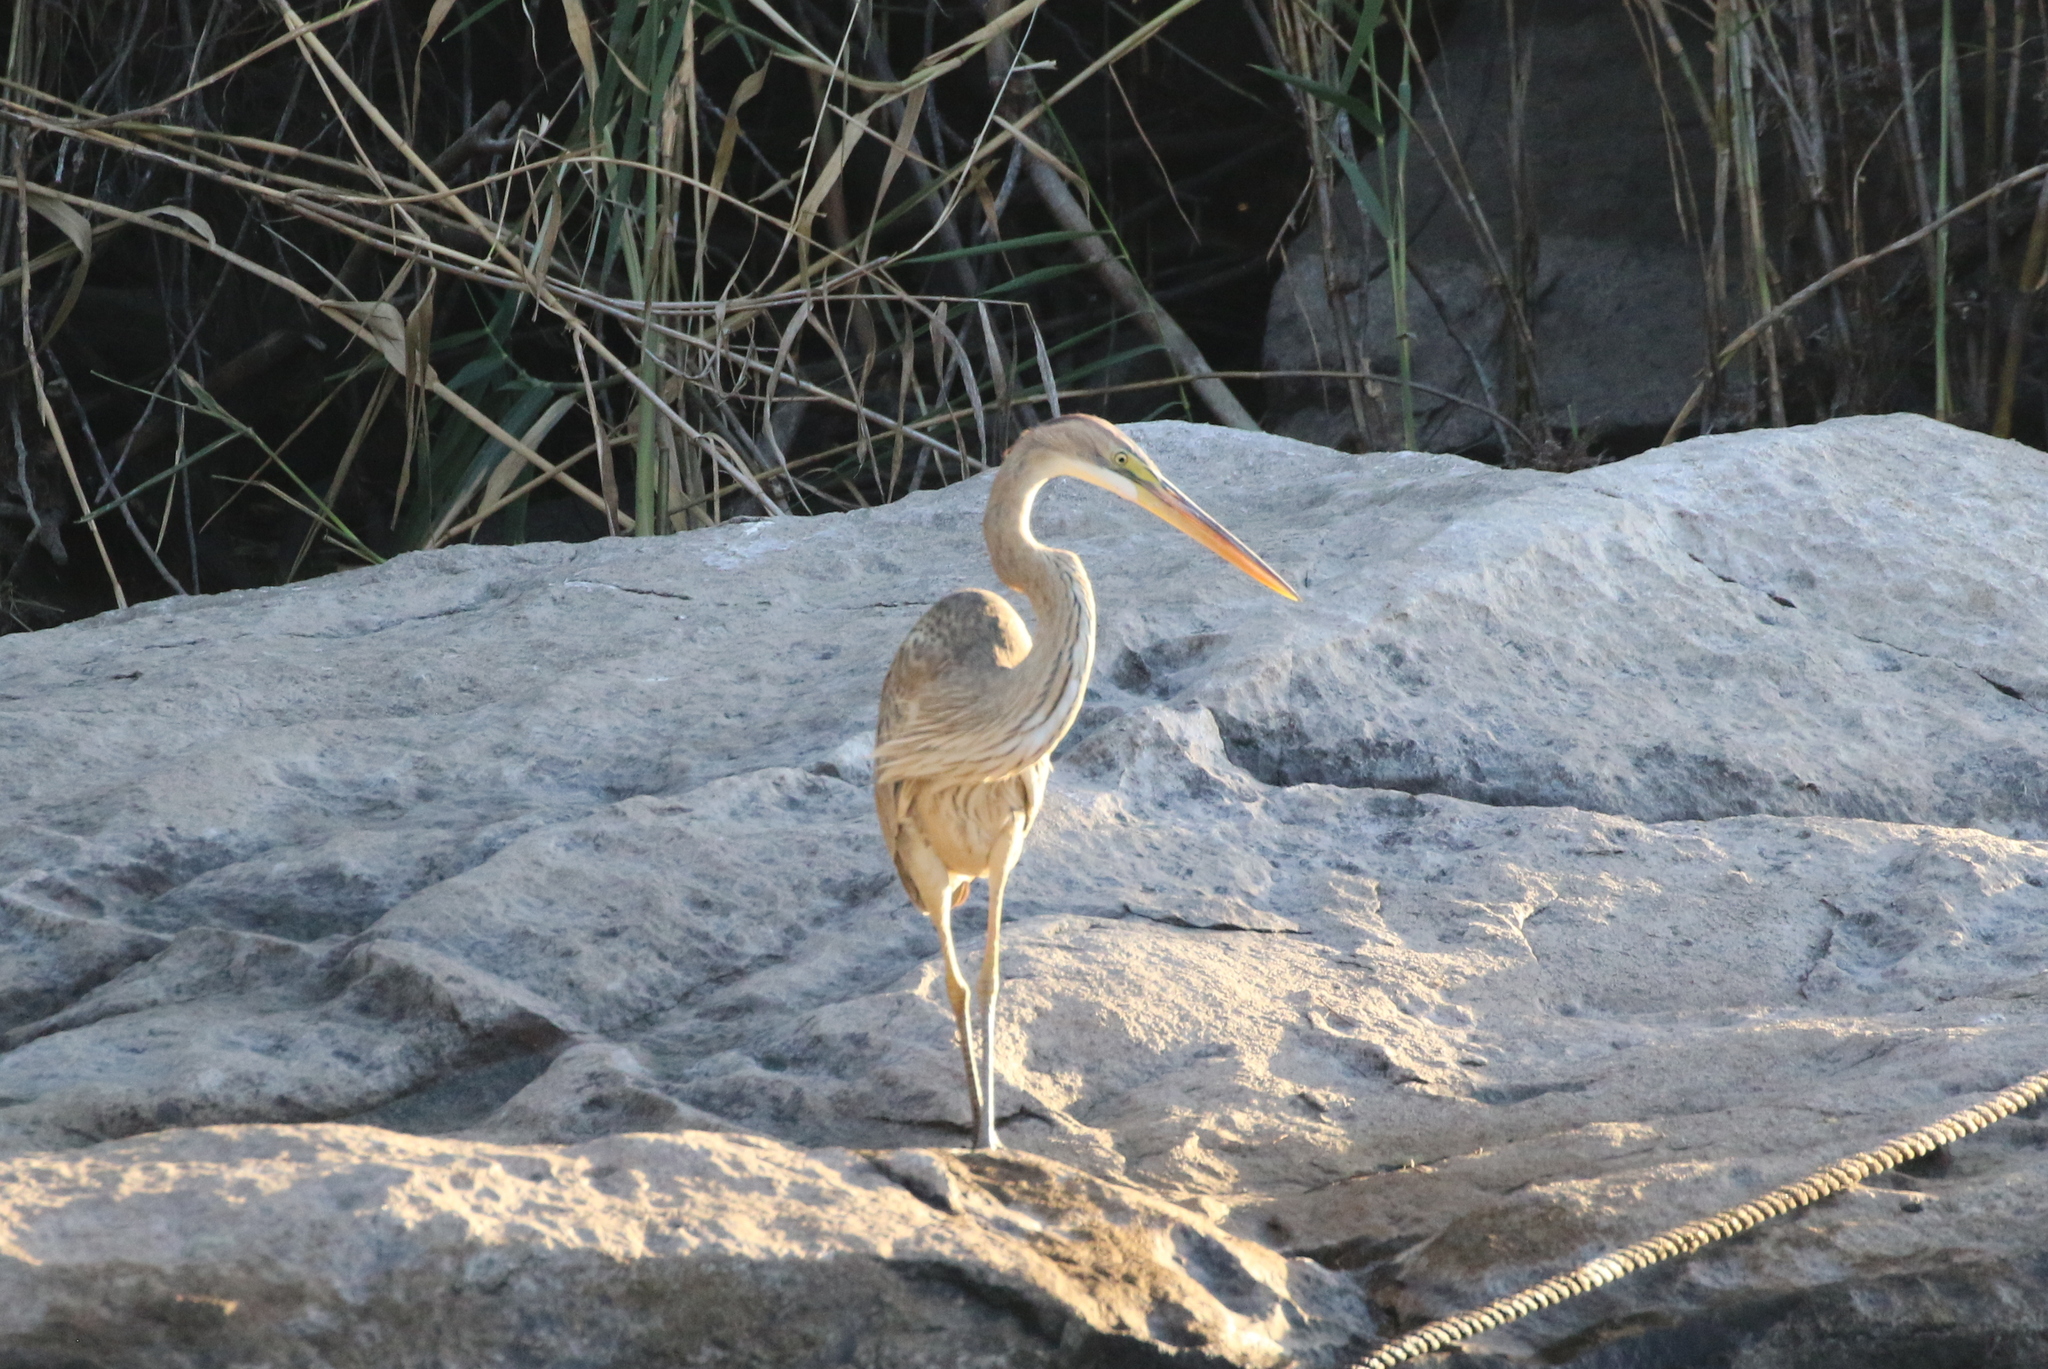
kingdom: Animalia
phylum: Chordata
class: Aves
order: Pelecaniformes
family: Ardeidae
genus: Ardea
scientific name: Ardea purpurea
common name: Purple heron
